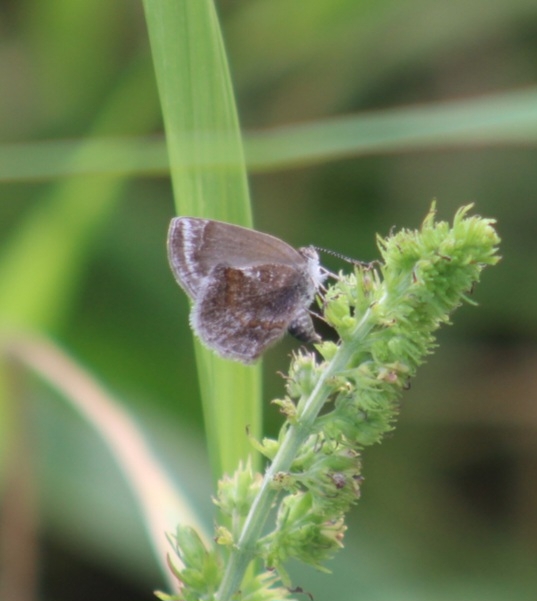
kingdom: Animalia
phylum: Arthropoda
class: Insecta
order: Lepidoptera
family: Lycaenidae
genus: Strymon
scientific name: Strymon bazochii
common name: Lantana scrub-hairstreak
